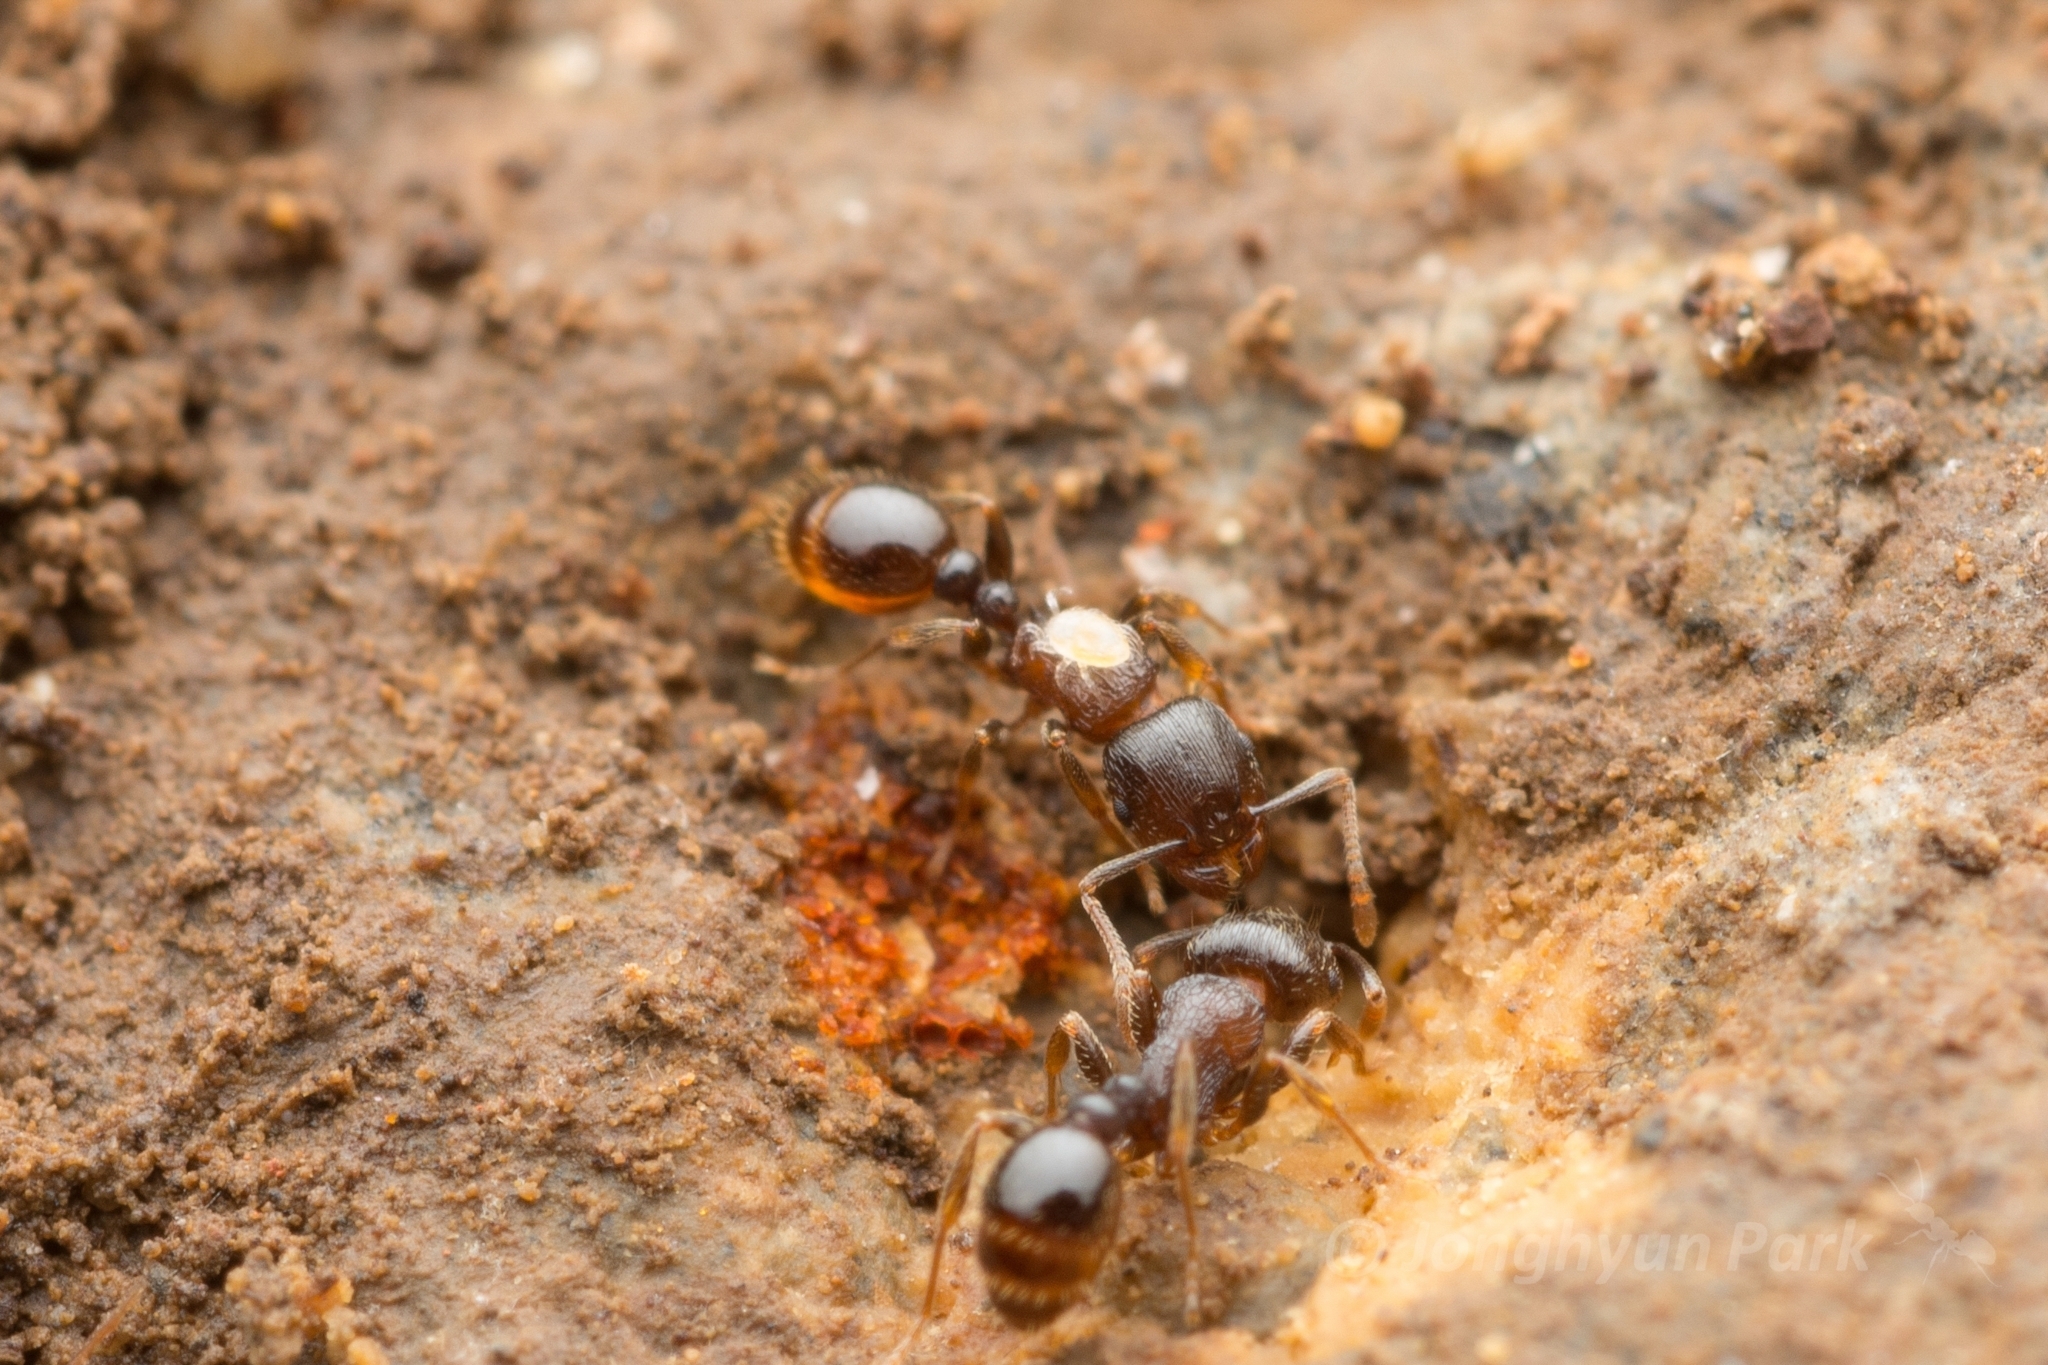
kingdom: Animalia
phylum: Arthropoda
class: Insecta
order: Hymenoptera
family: Formicidae
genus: Tetramorium
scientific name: Tetramorium tsushimae
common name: Ant
